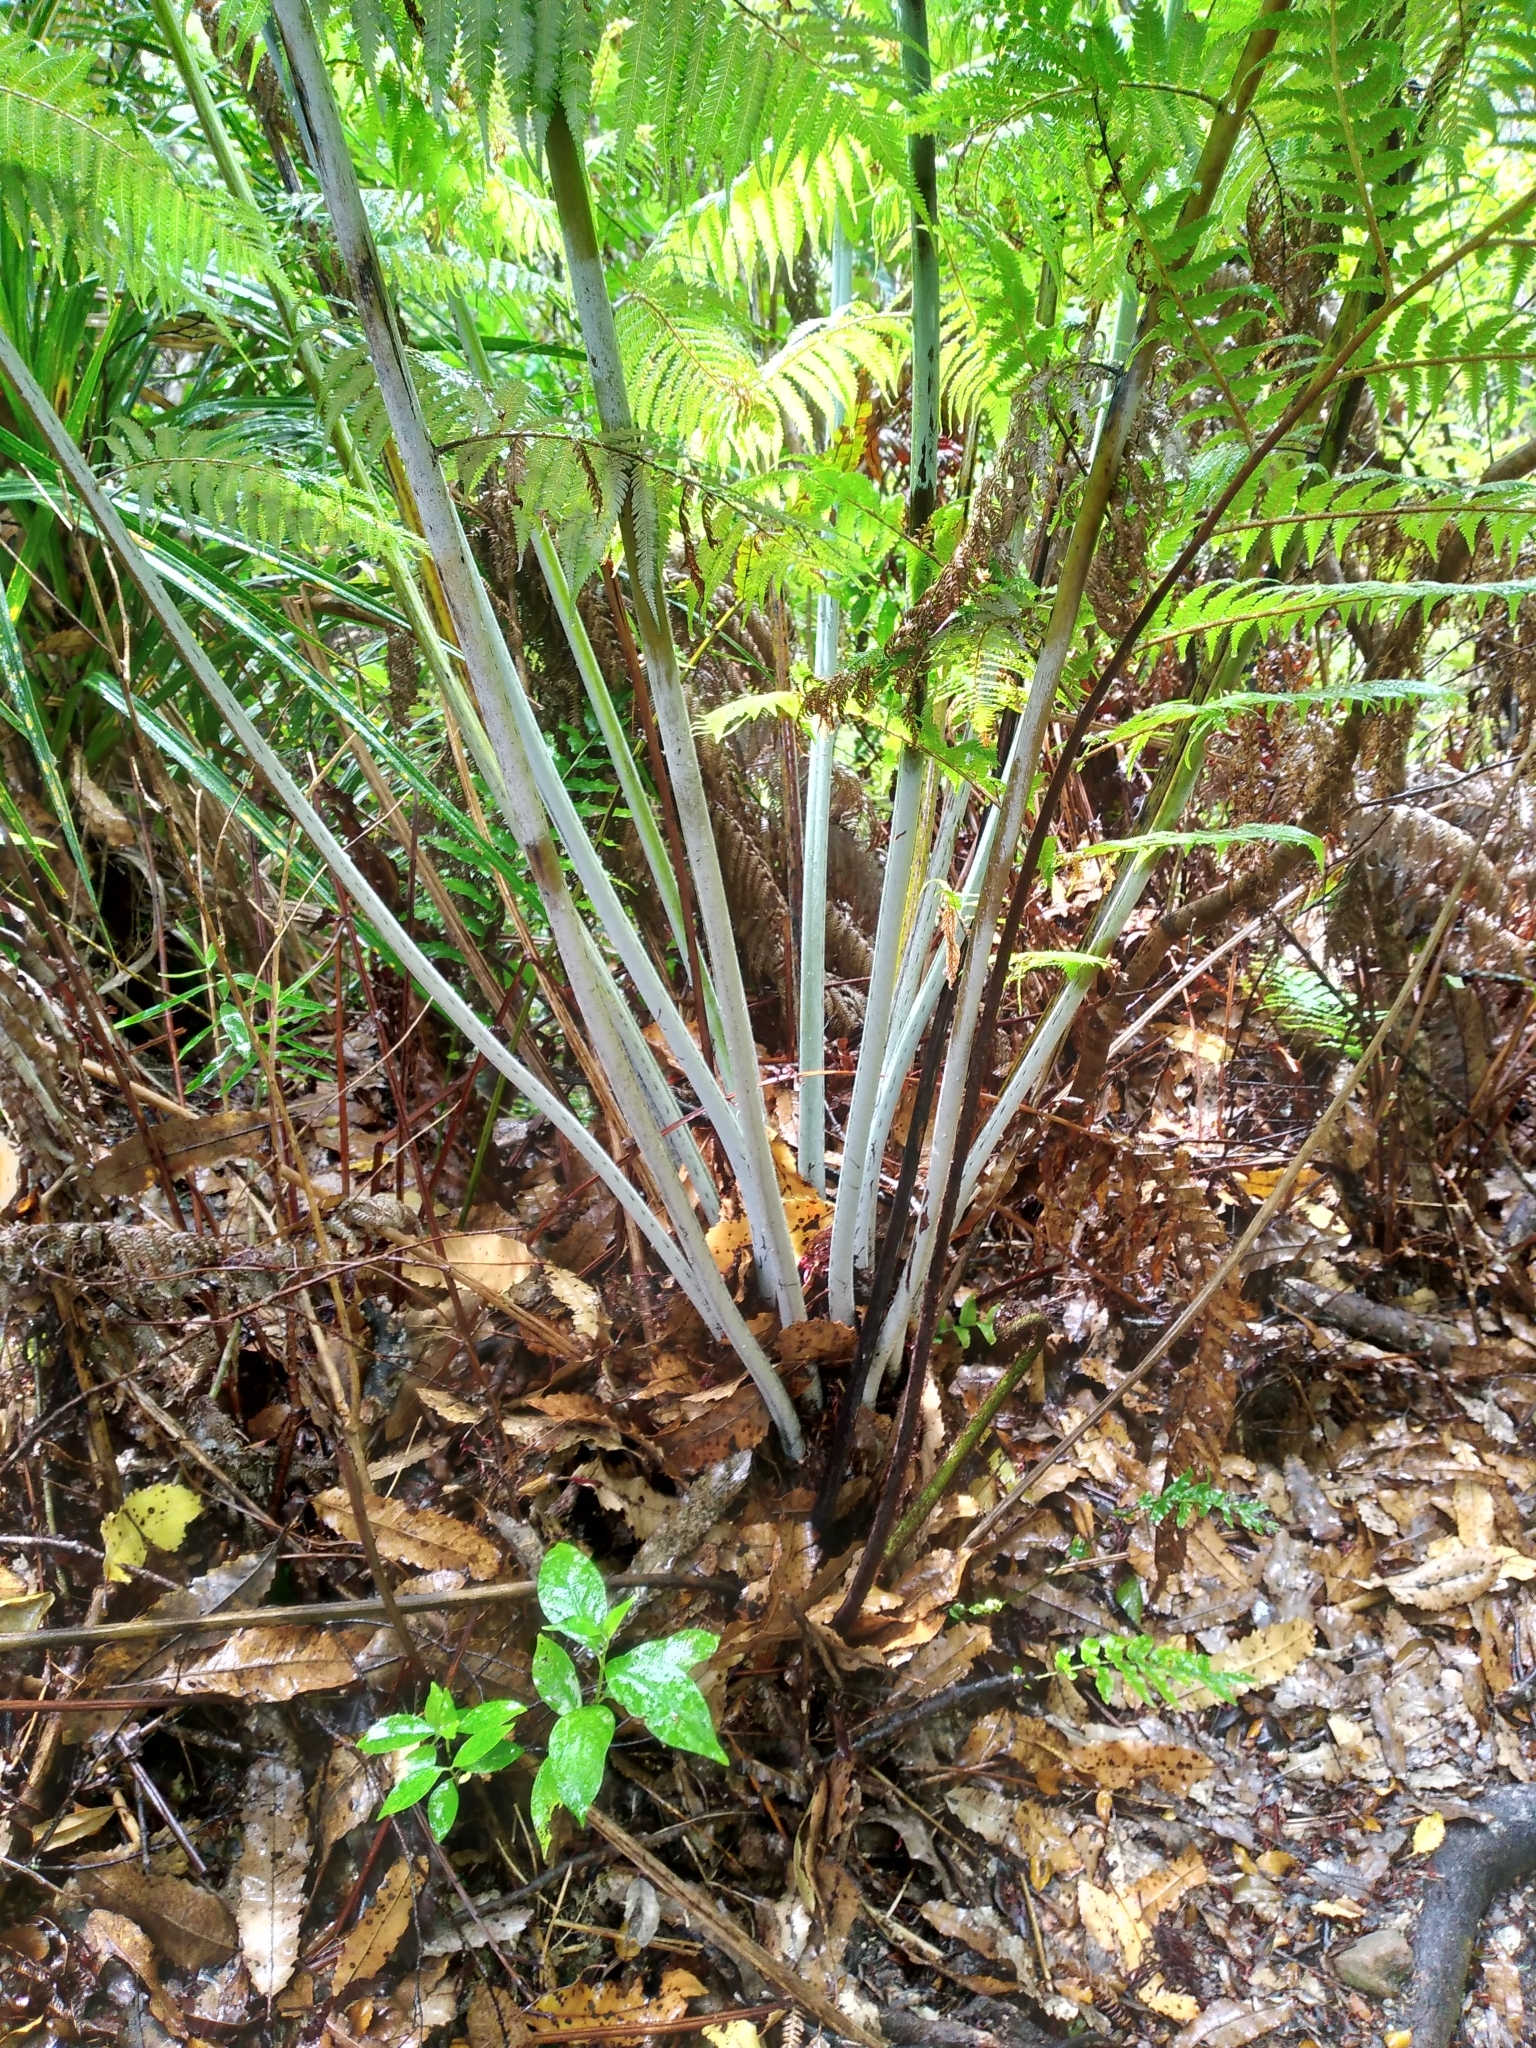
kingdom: Plantae
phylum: Tracheophyta
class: Polypodiopsida
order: Cyatheales
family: Cyatheaceae
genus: Alsophila
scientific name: Alsophila dealbata
